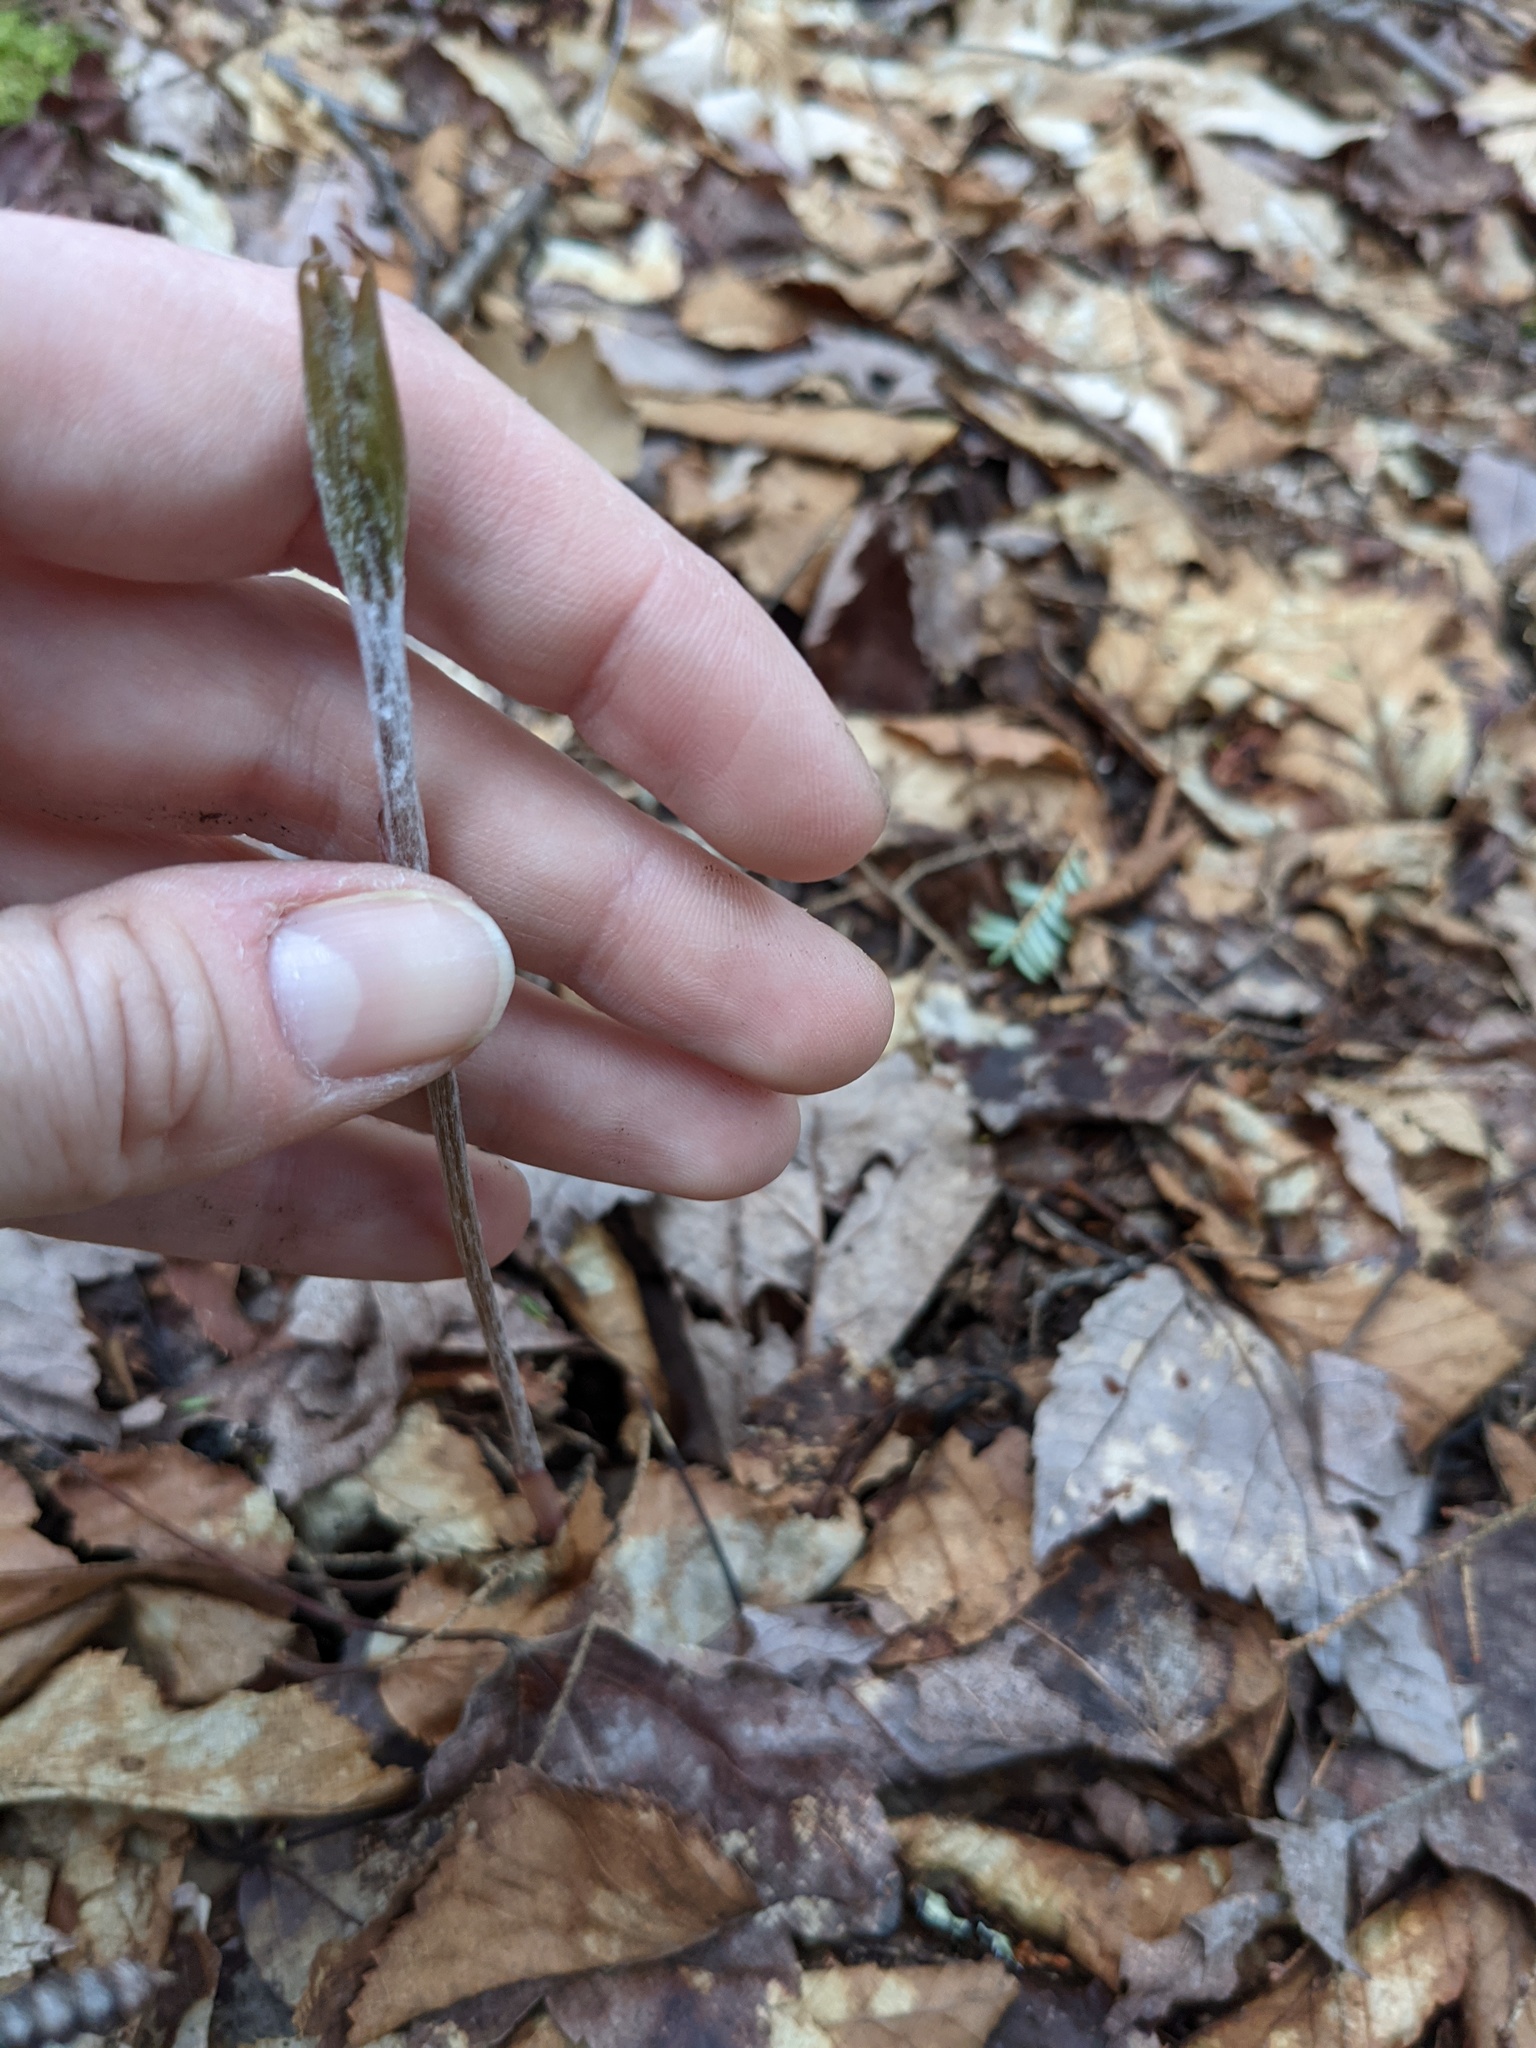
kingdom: Plantae
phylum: Tracheophyta
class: Liliopsida
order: Liliales
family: Liliaceae
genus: Medeola
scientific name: Medeola virginiana
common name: Indian cucumber-root
